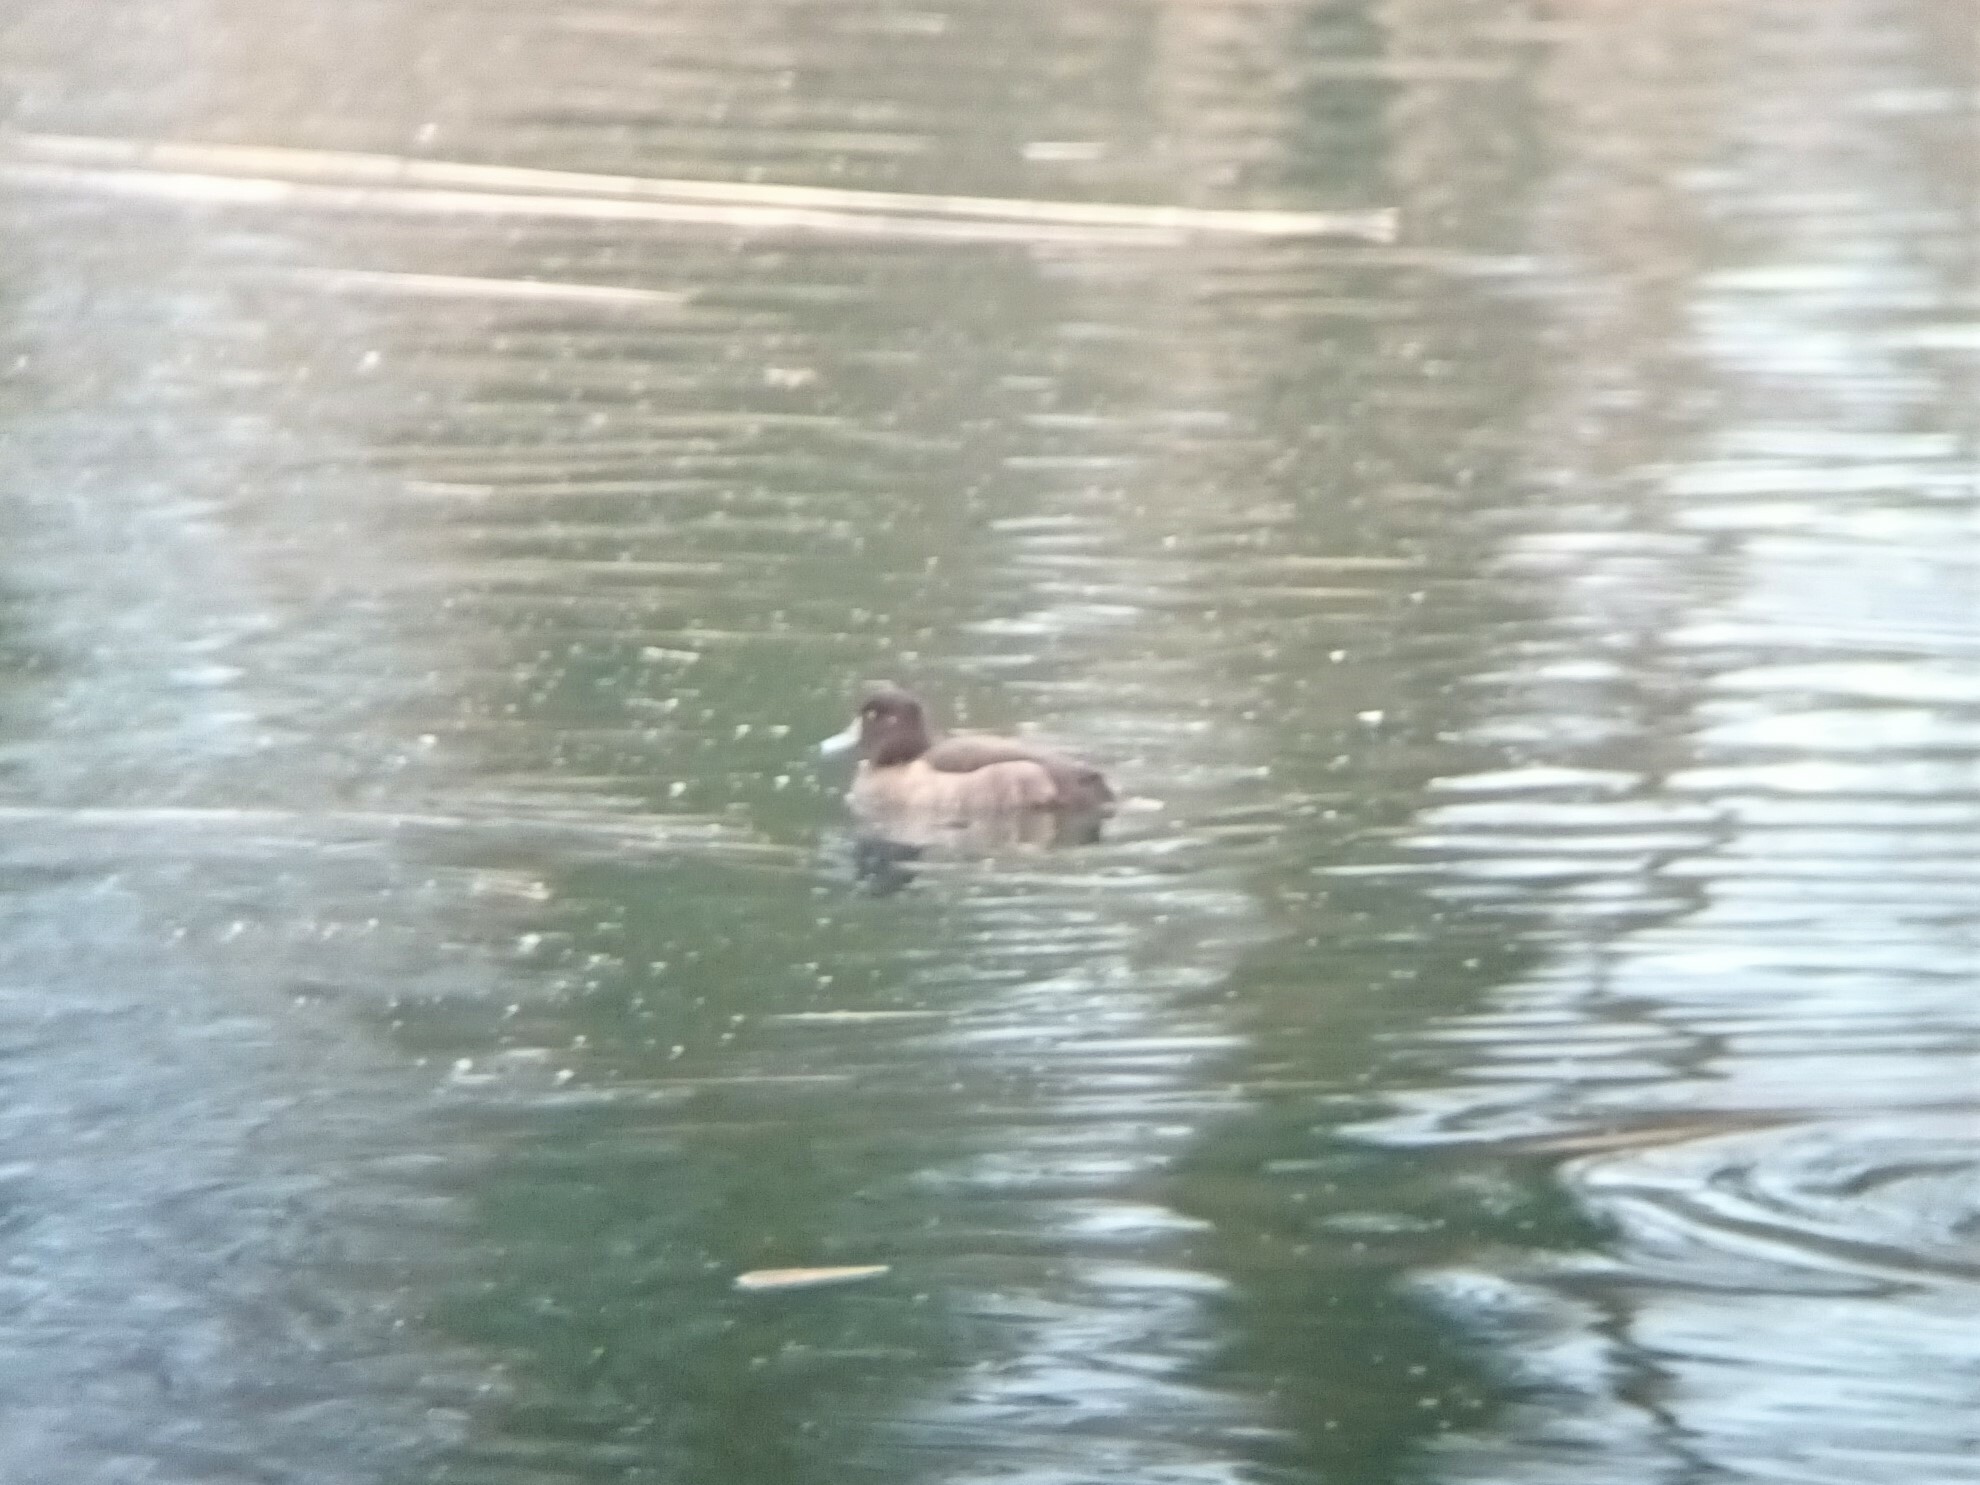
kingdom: Animalia
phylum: Chordata
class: Aves
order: Anseriformes
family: Anatidae
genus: Aythya
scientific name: Aythya fuligula
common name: Tufted duck
